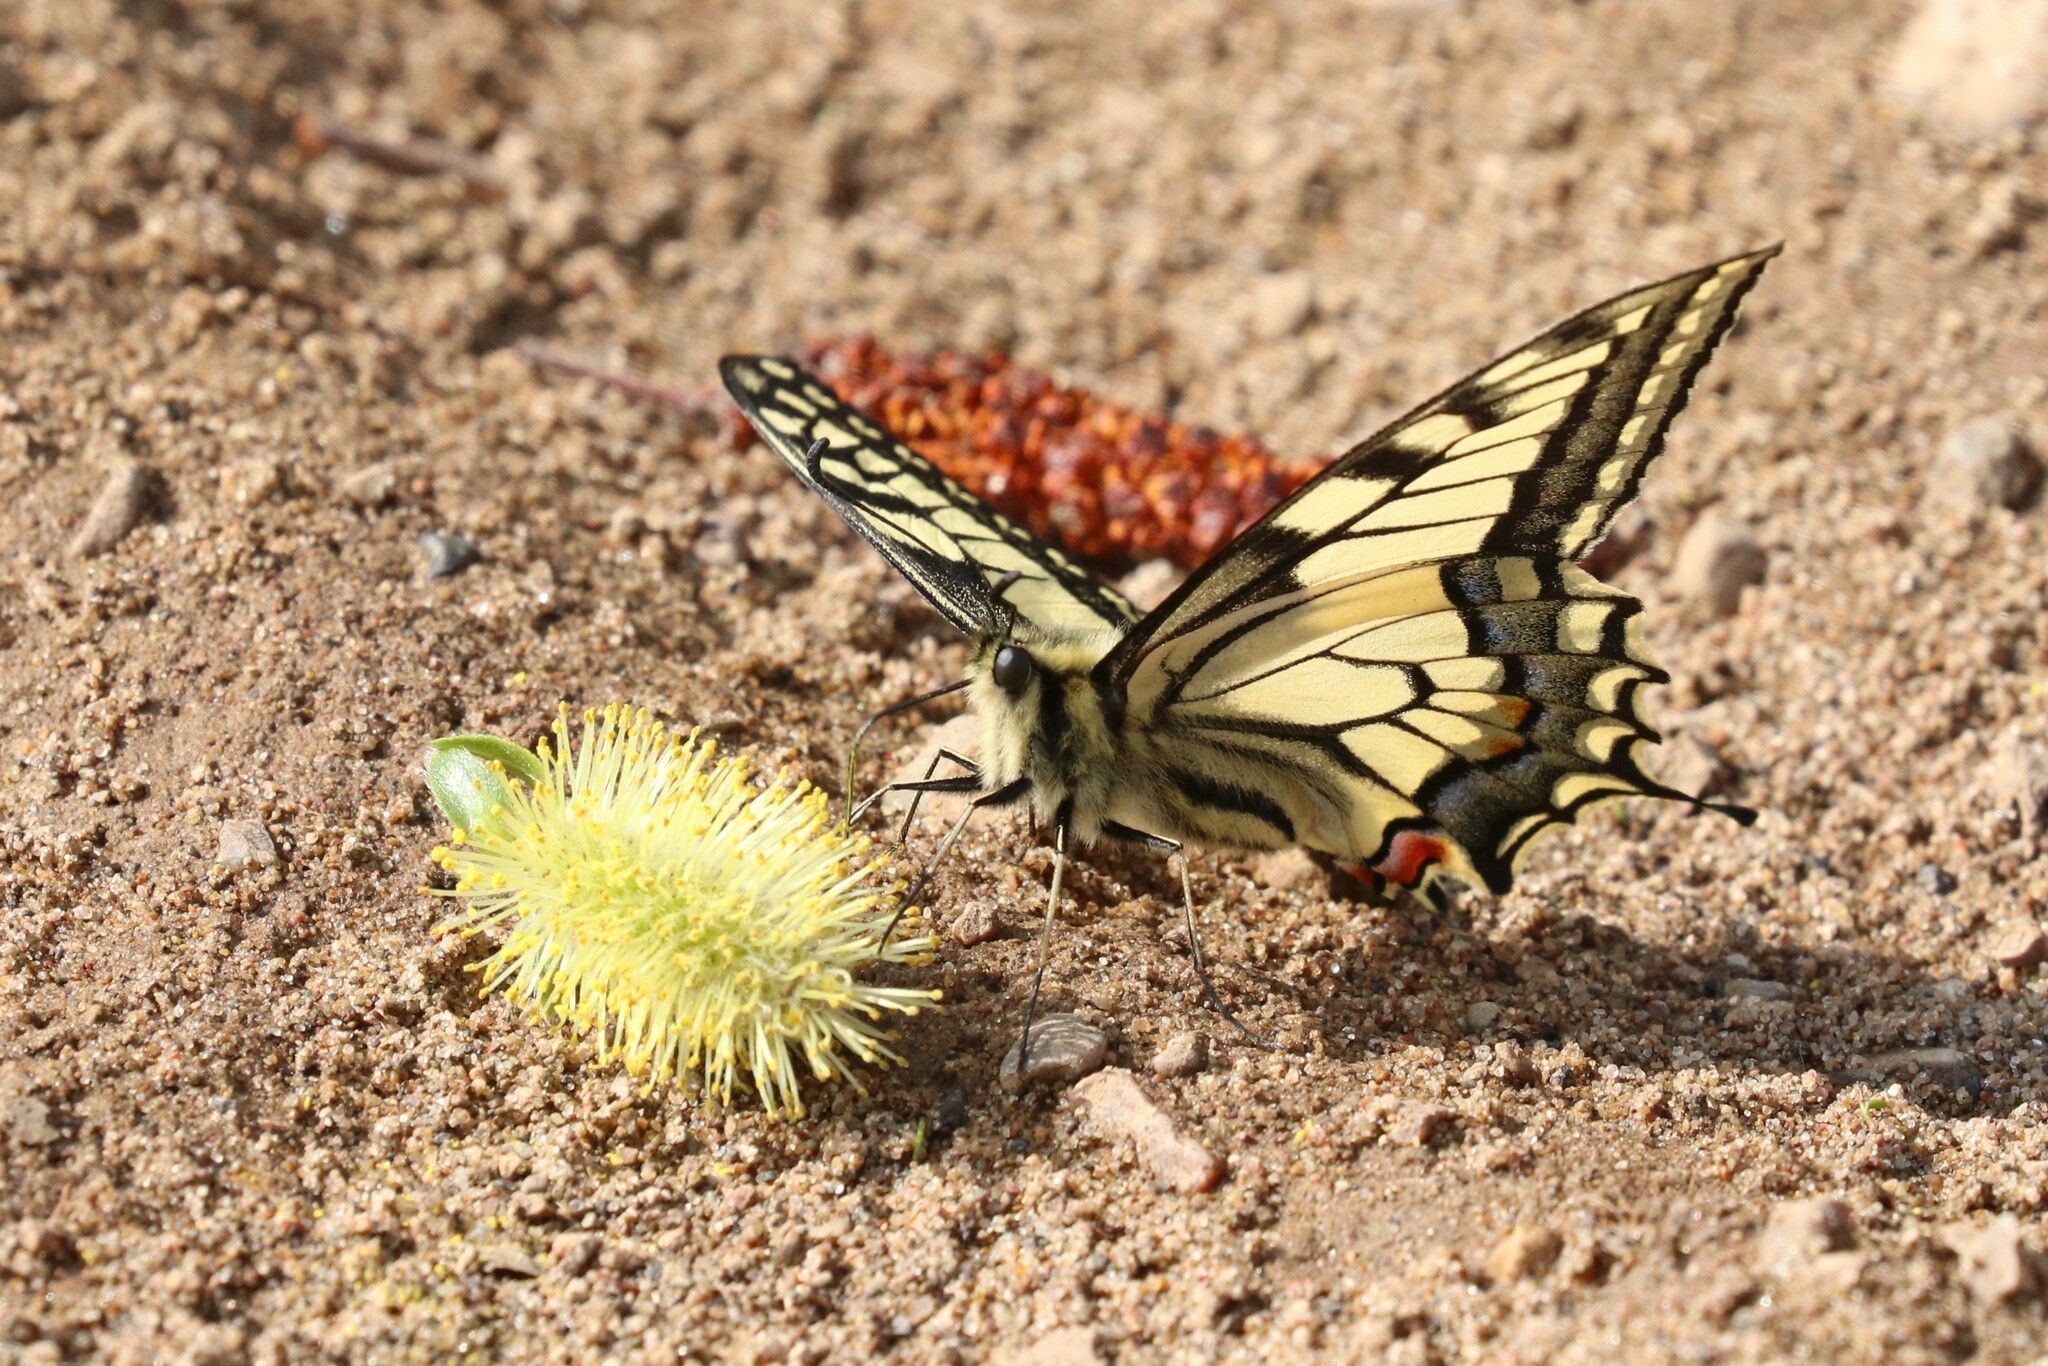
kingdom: Animalia
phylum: Arthropoda
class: Insecta
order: Lepidoptera
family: Papilionidae
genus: Papilio
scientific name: Papilio machaon
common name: Swallowtail
